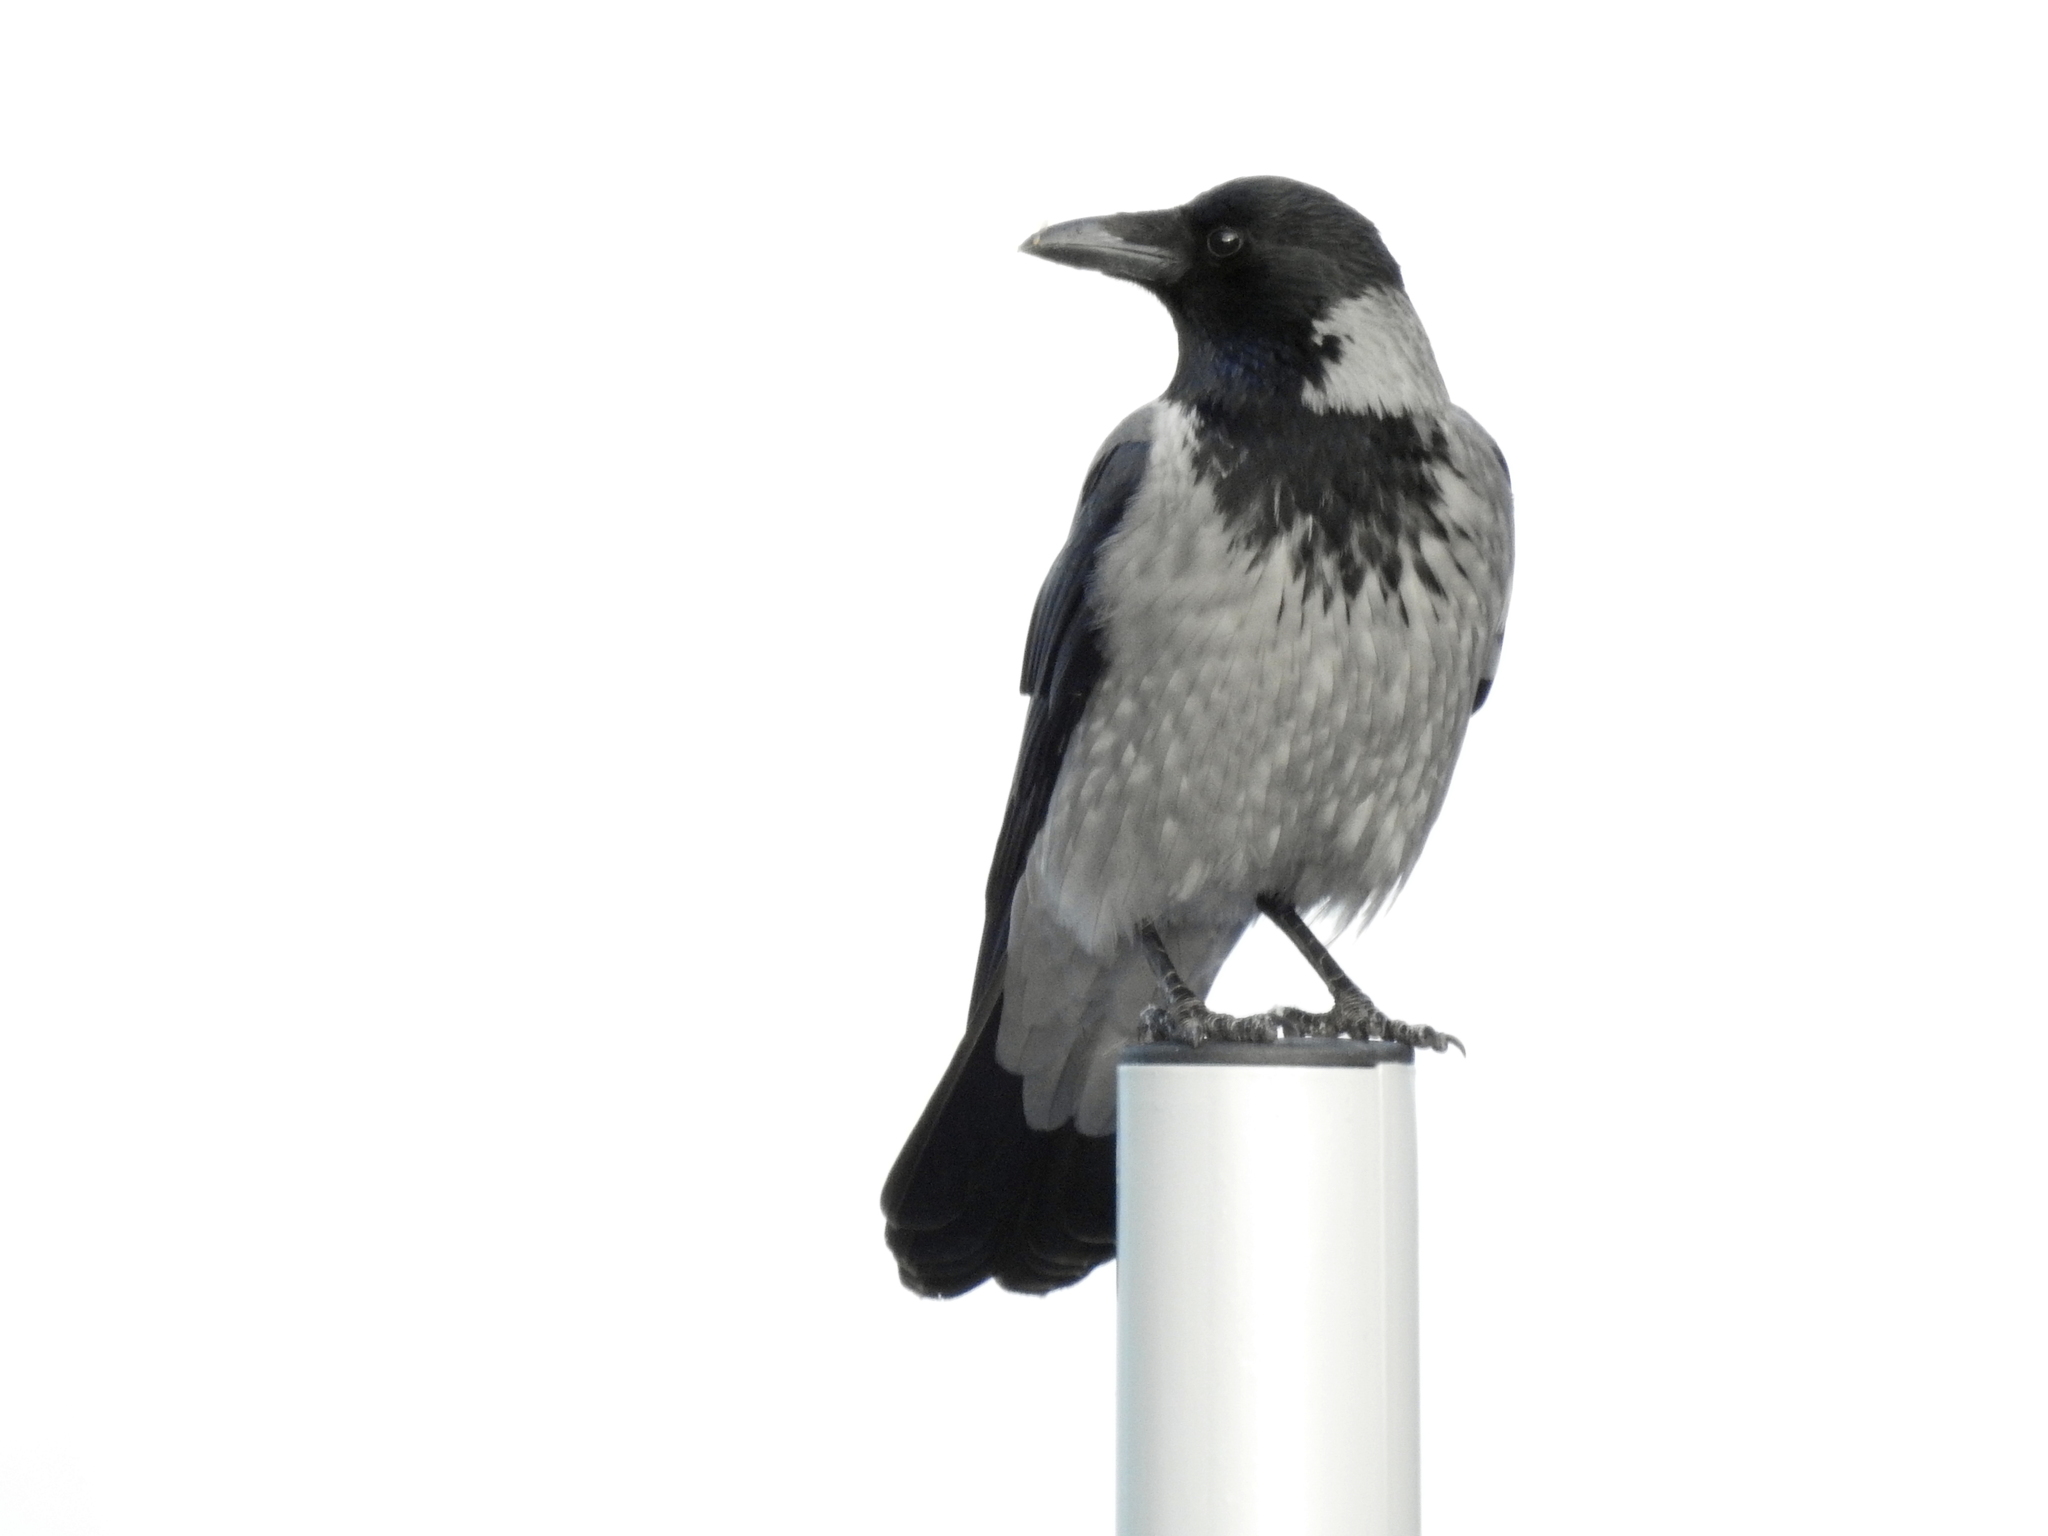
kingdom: Animalia
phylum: Chordata
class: Aves
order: Passeriformes
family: Corvidae
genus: Corvus
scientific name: Corvus cornix
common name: Hooded crow
